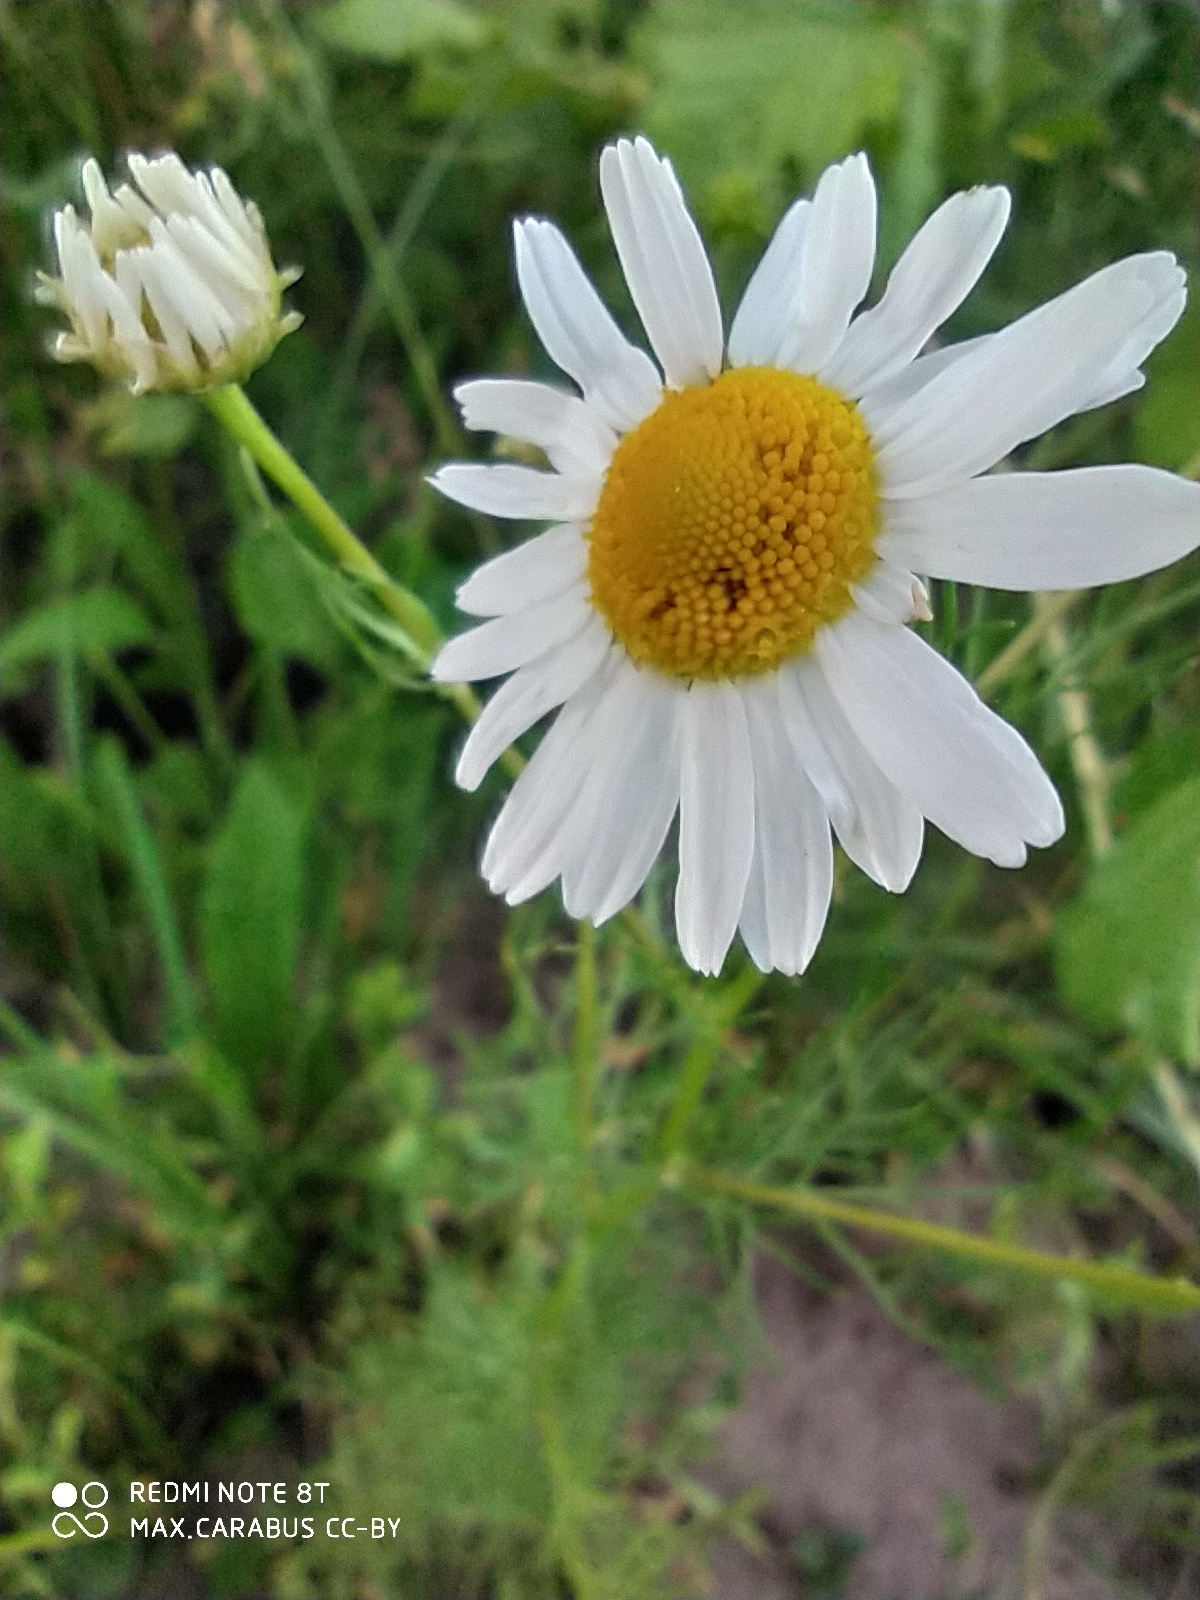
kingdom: Plantae
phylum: Tracheophyta
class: Magnoliopsida
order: Asterales
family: Asteraceae
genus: Tripleurospermum
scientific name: Tripleurospermum inodorum
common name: Scentless mayweed
